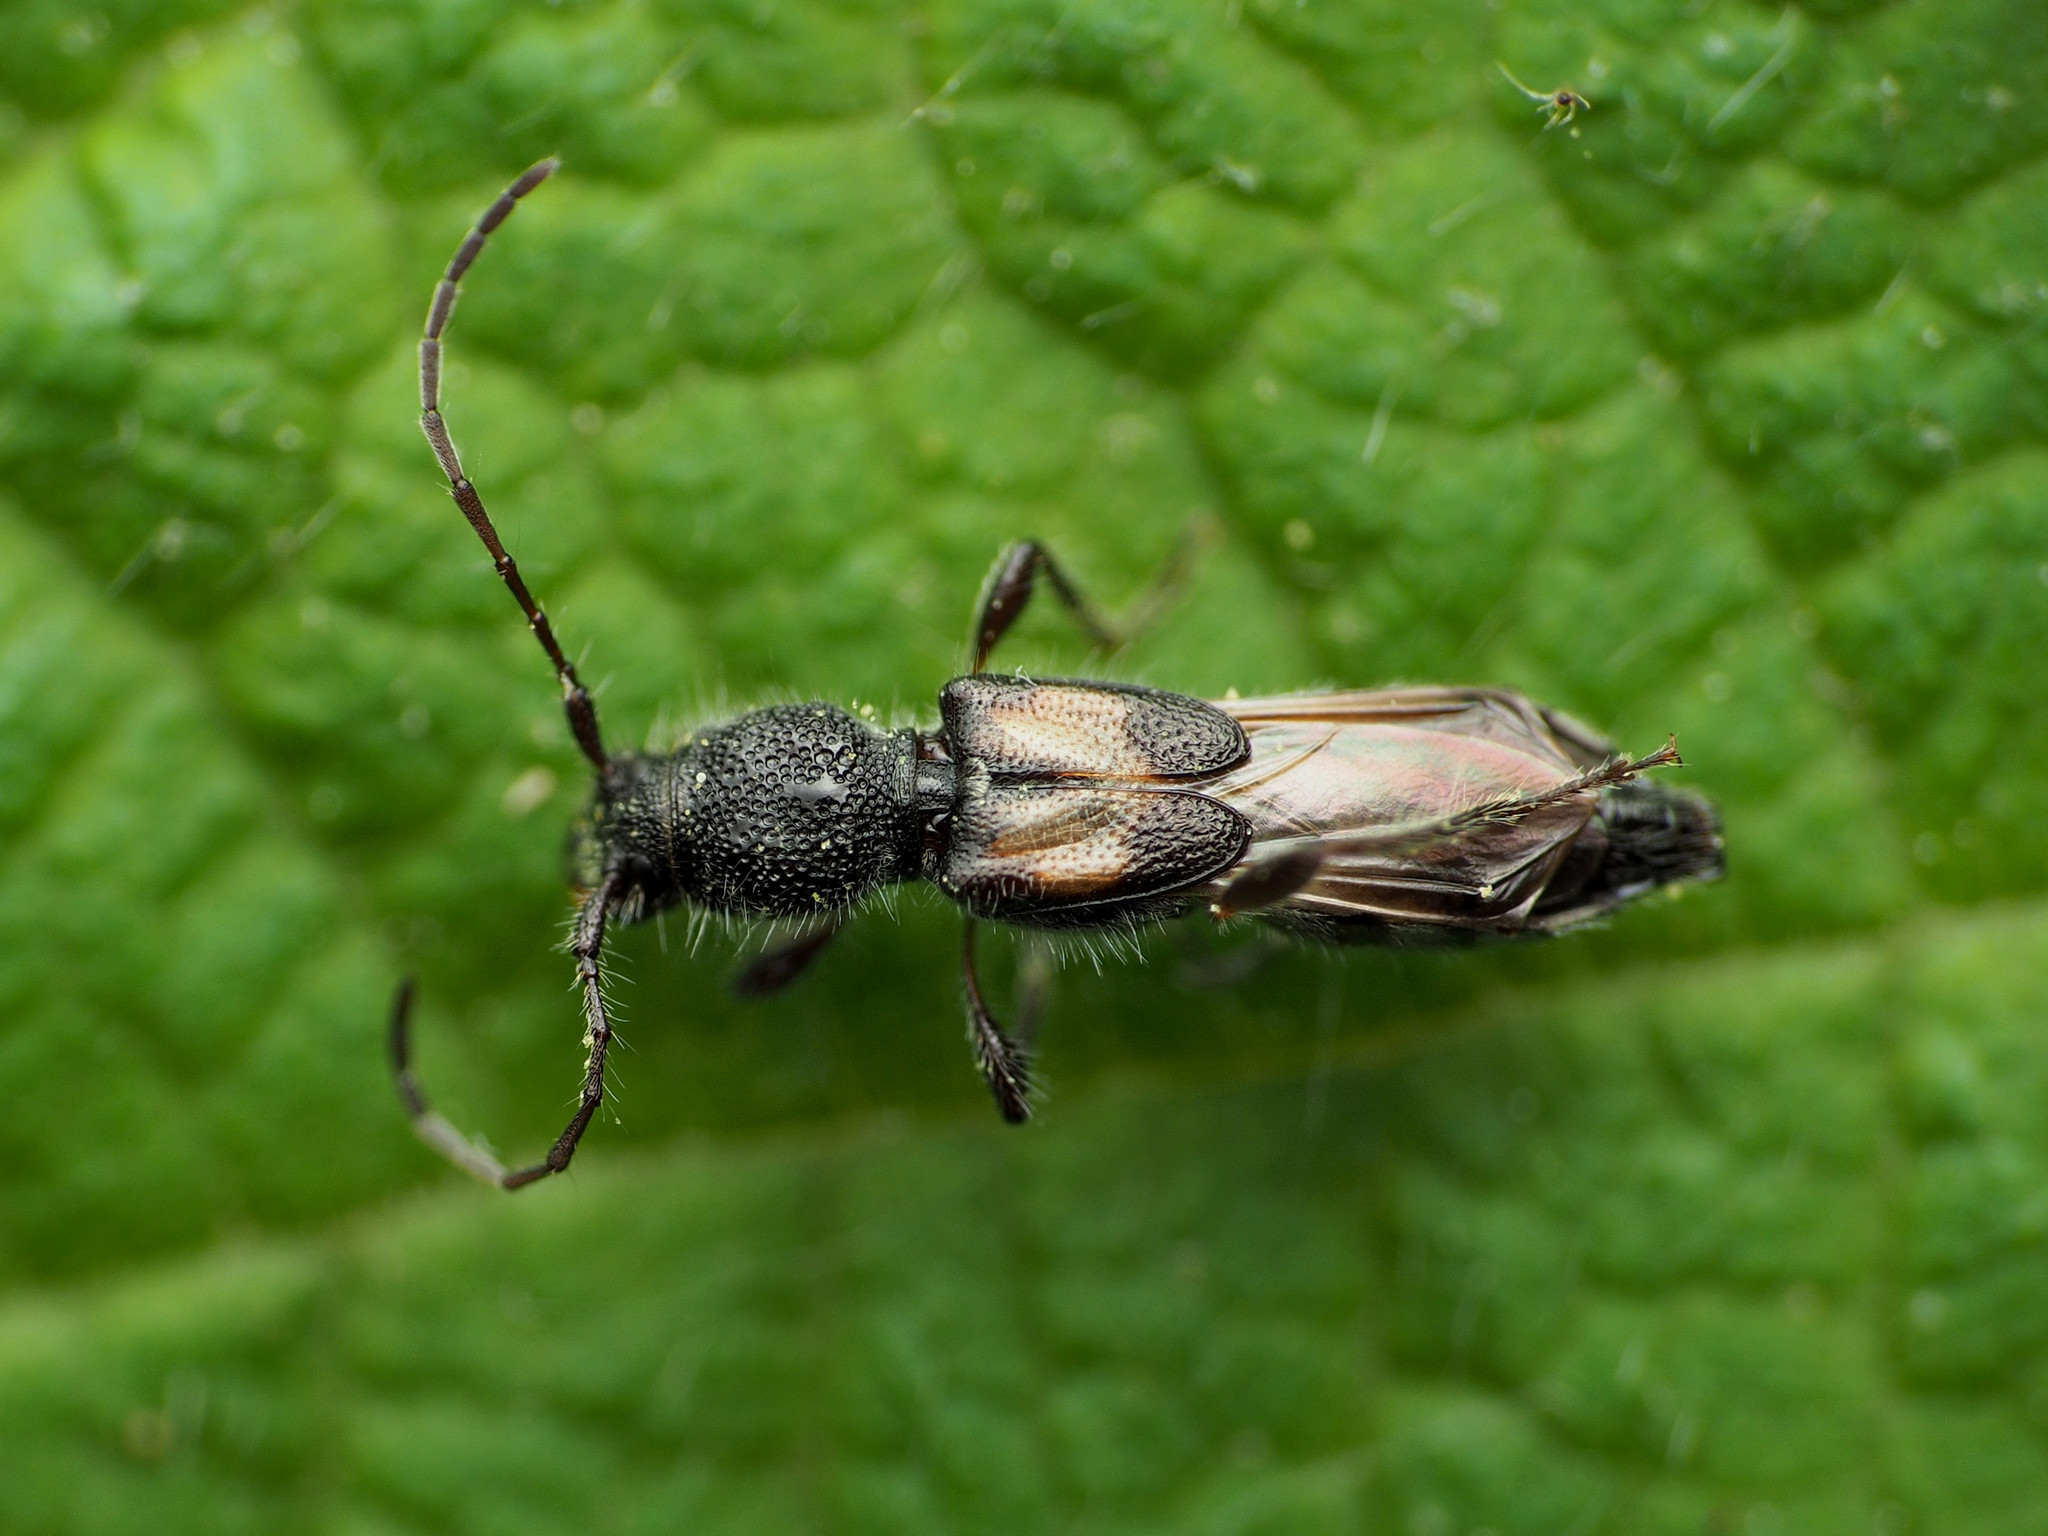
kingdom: Animalia
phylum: Arthropoda
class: Insecta
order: Coleoptera
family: Cerambycidae
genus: Molorchus
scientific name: Molorchus bimaculatus
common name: Bimaculate longhorn beetle
